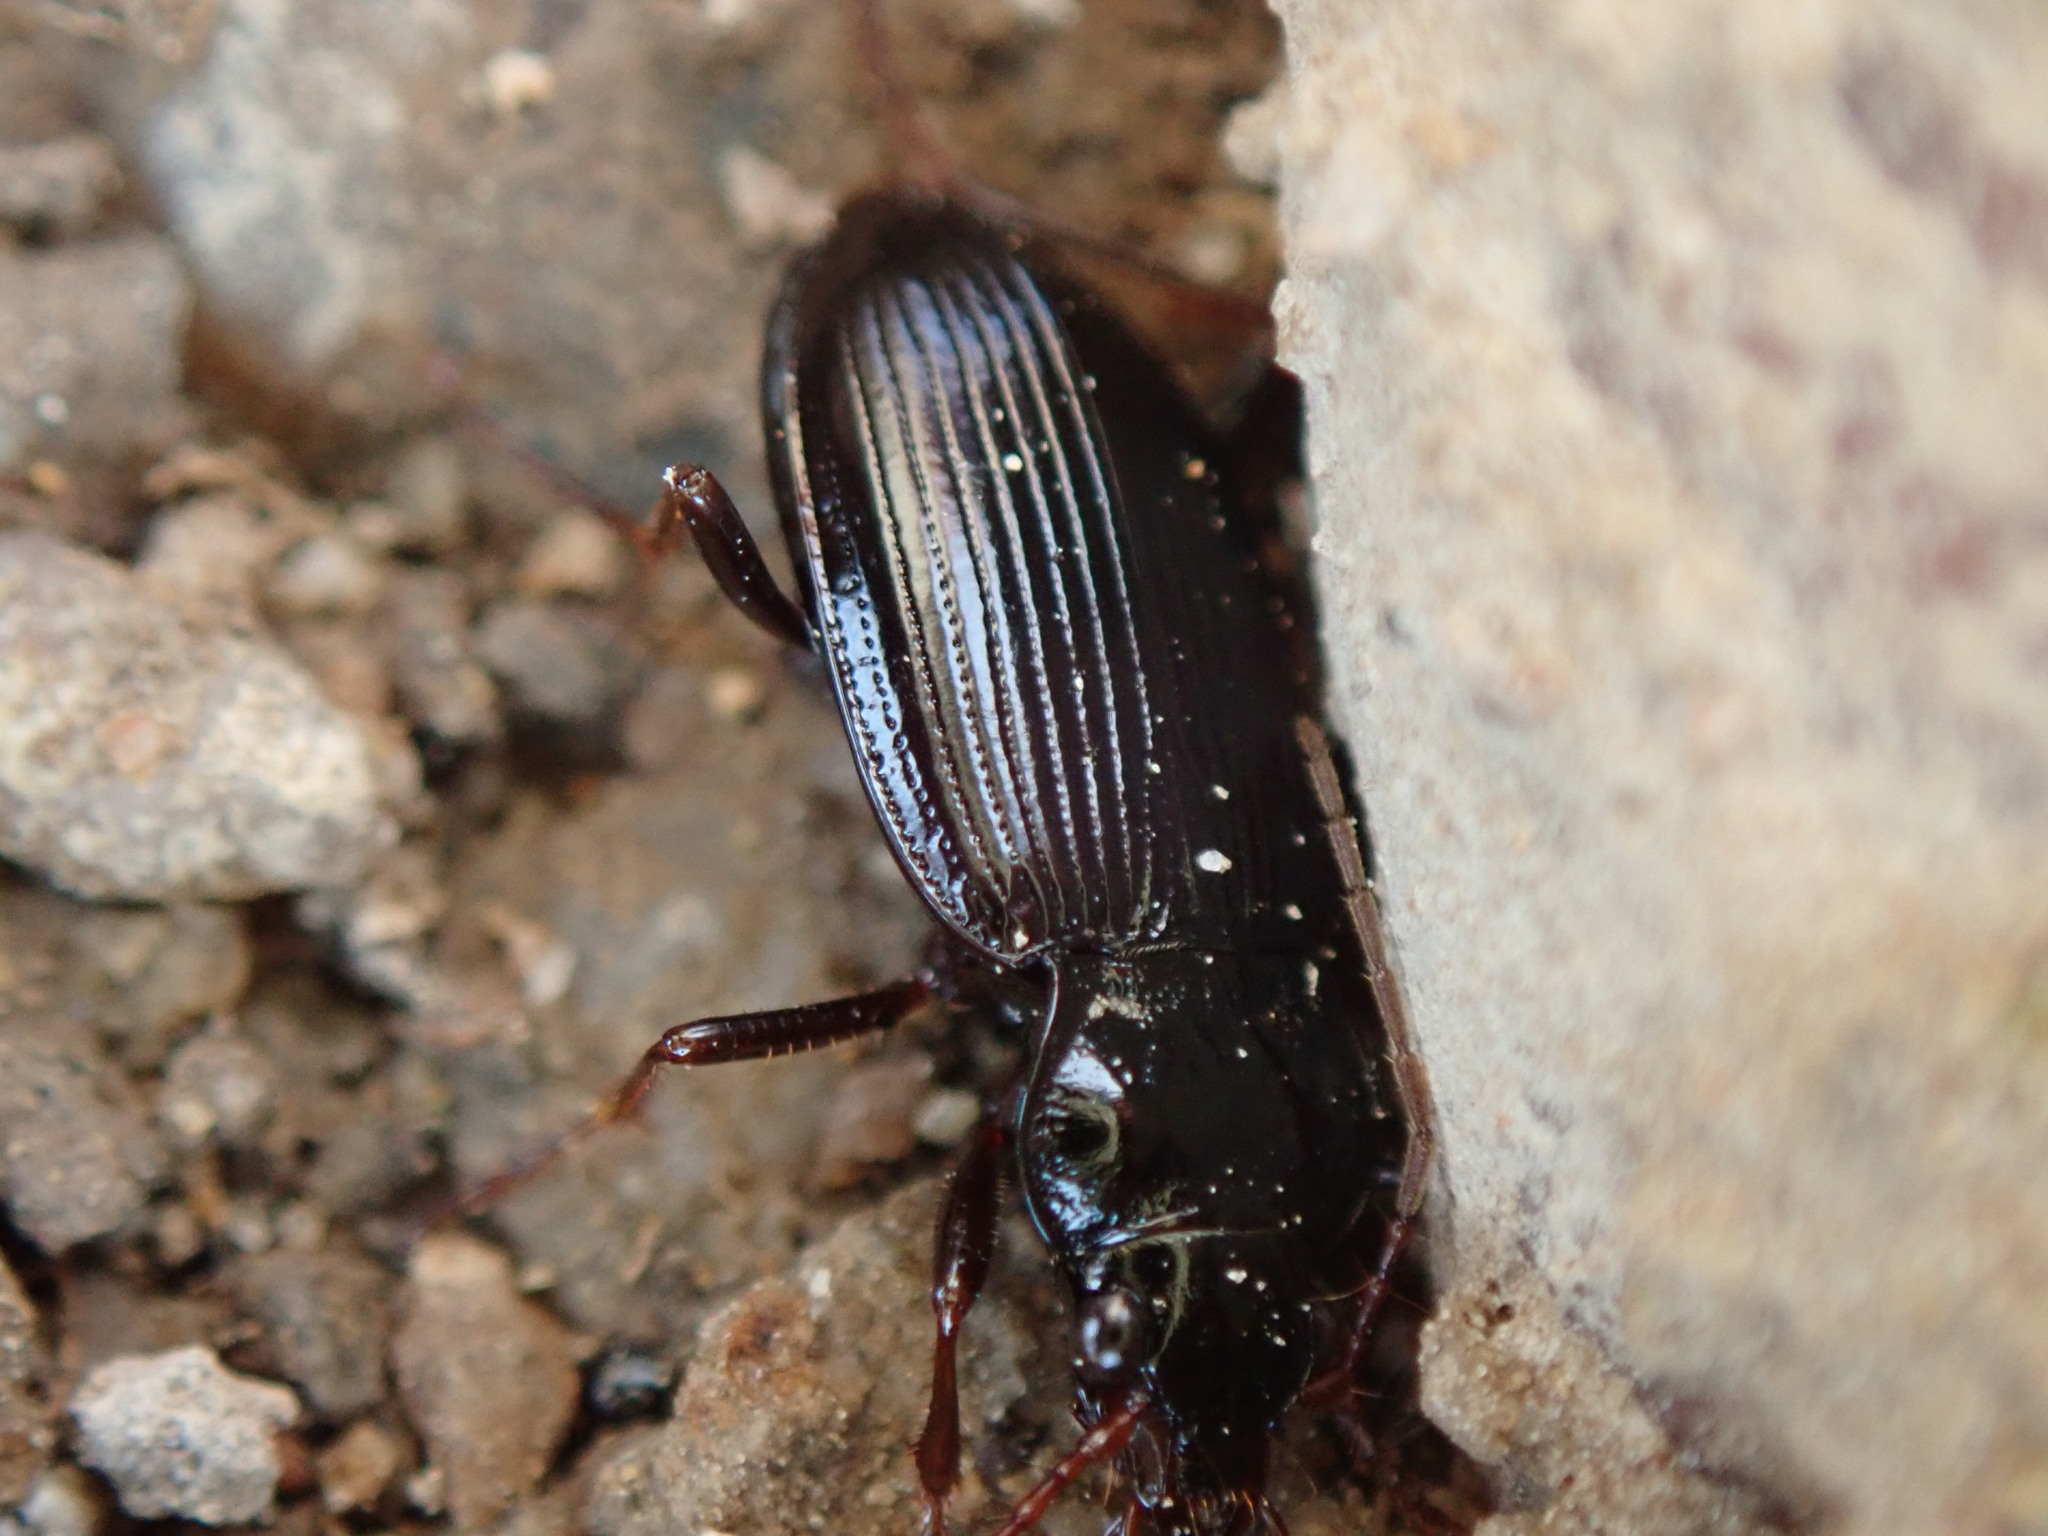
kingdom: Animalia
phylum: Arthropoda
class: Insecta
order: Coleoptera
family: Carabidae
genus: Nebria
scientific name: Nebria brevicollis
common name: Short-necked gazelle beetle
